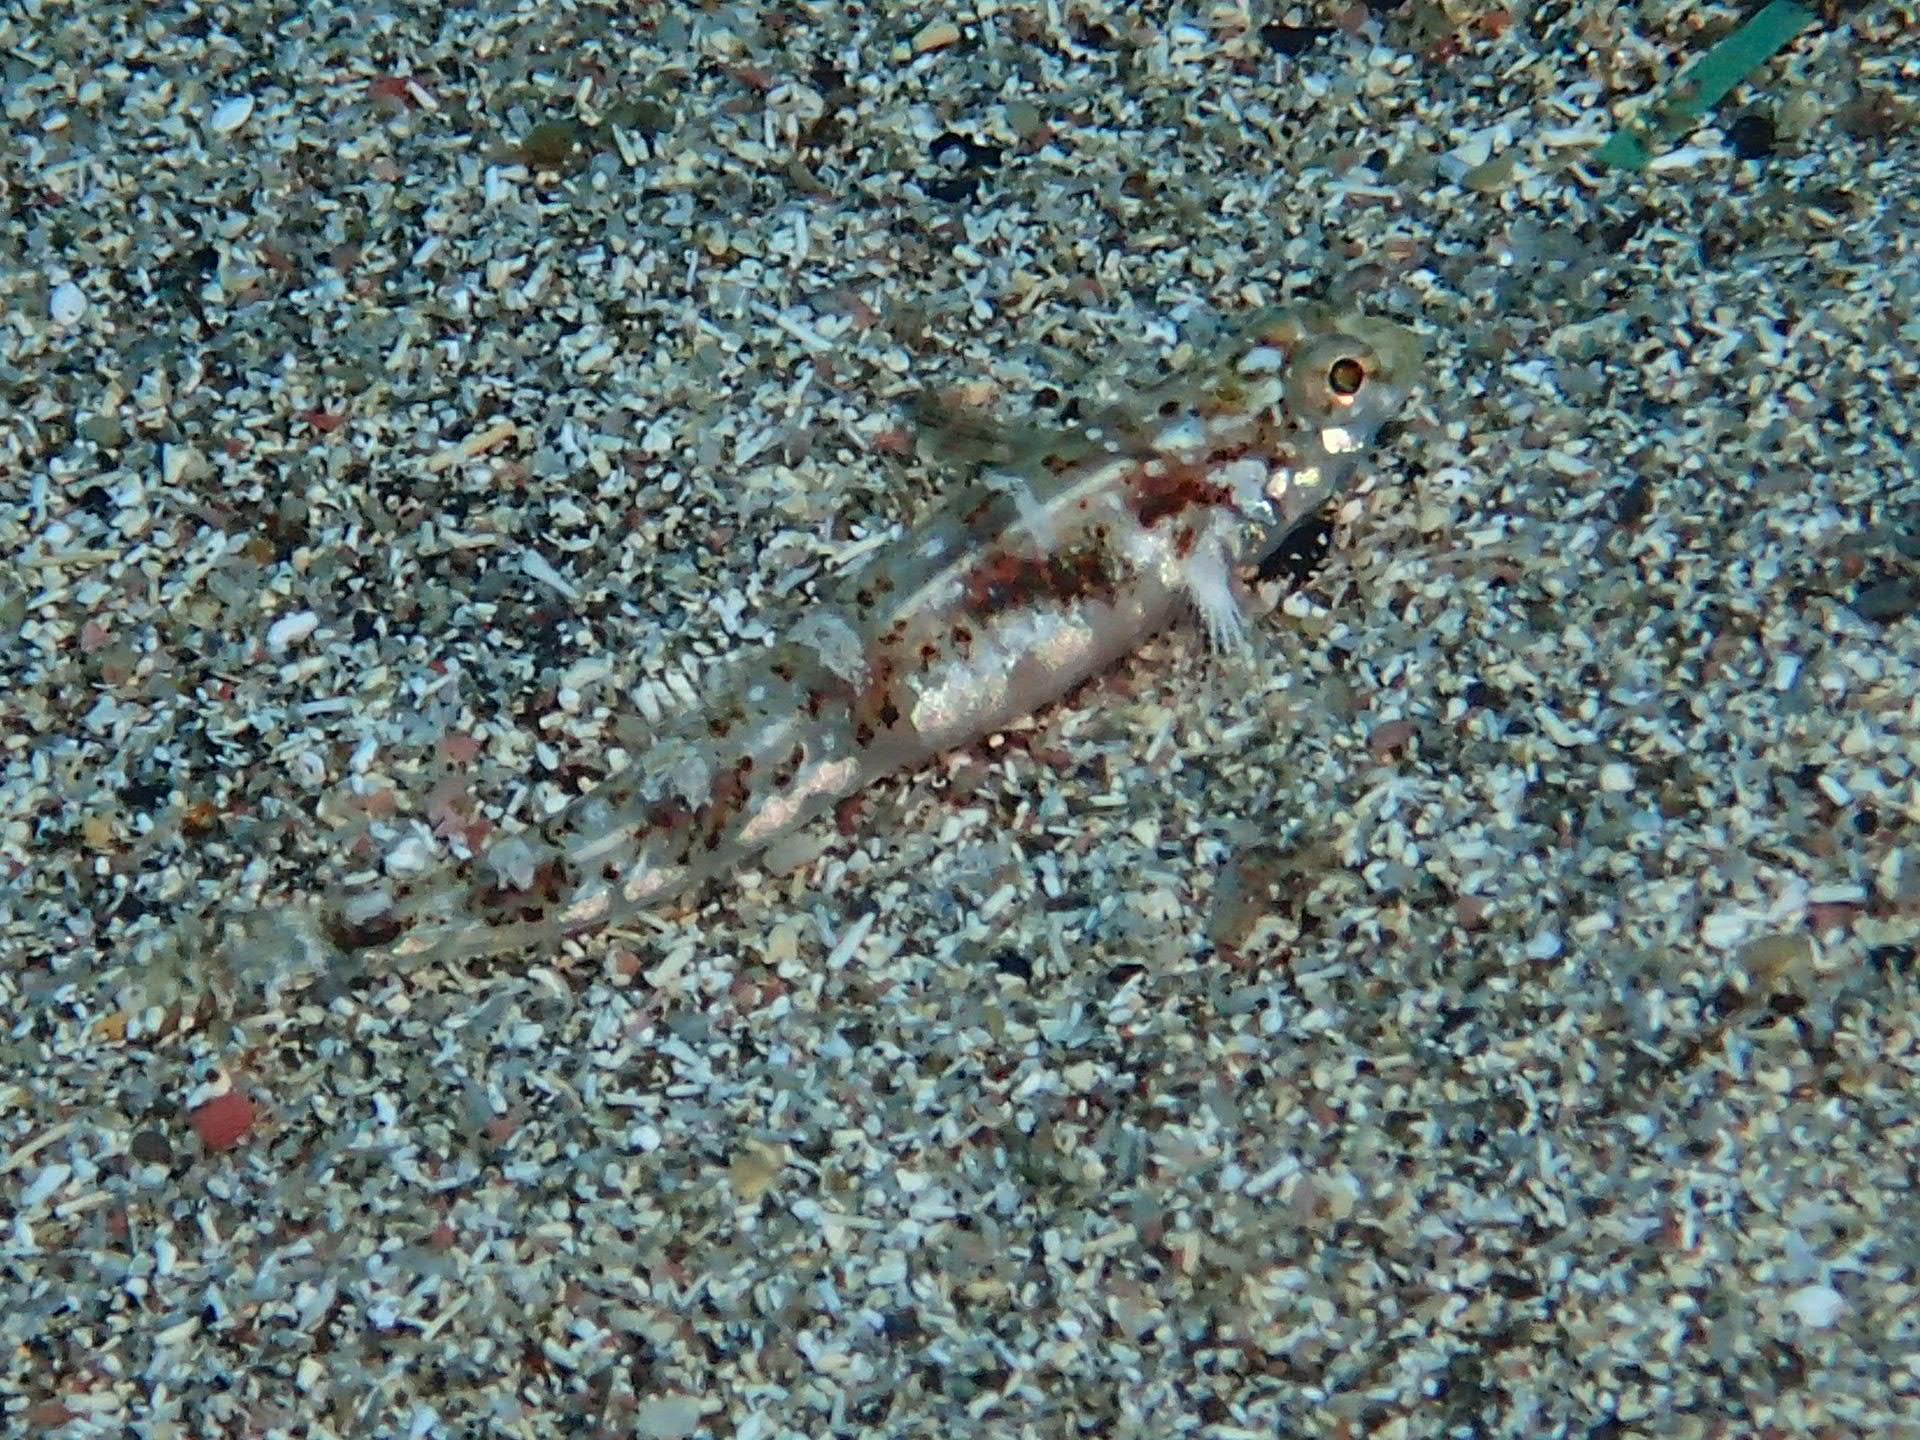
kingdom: Animalia
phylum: Chordata
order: Perciformes
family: Gobiidae
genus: Pomatoschistus
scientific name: Pomatoschistus pictus
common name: Painted goby
